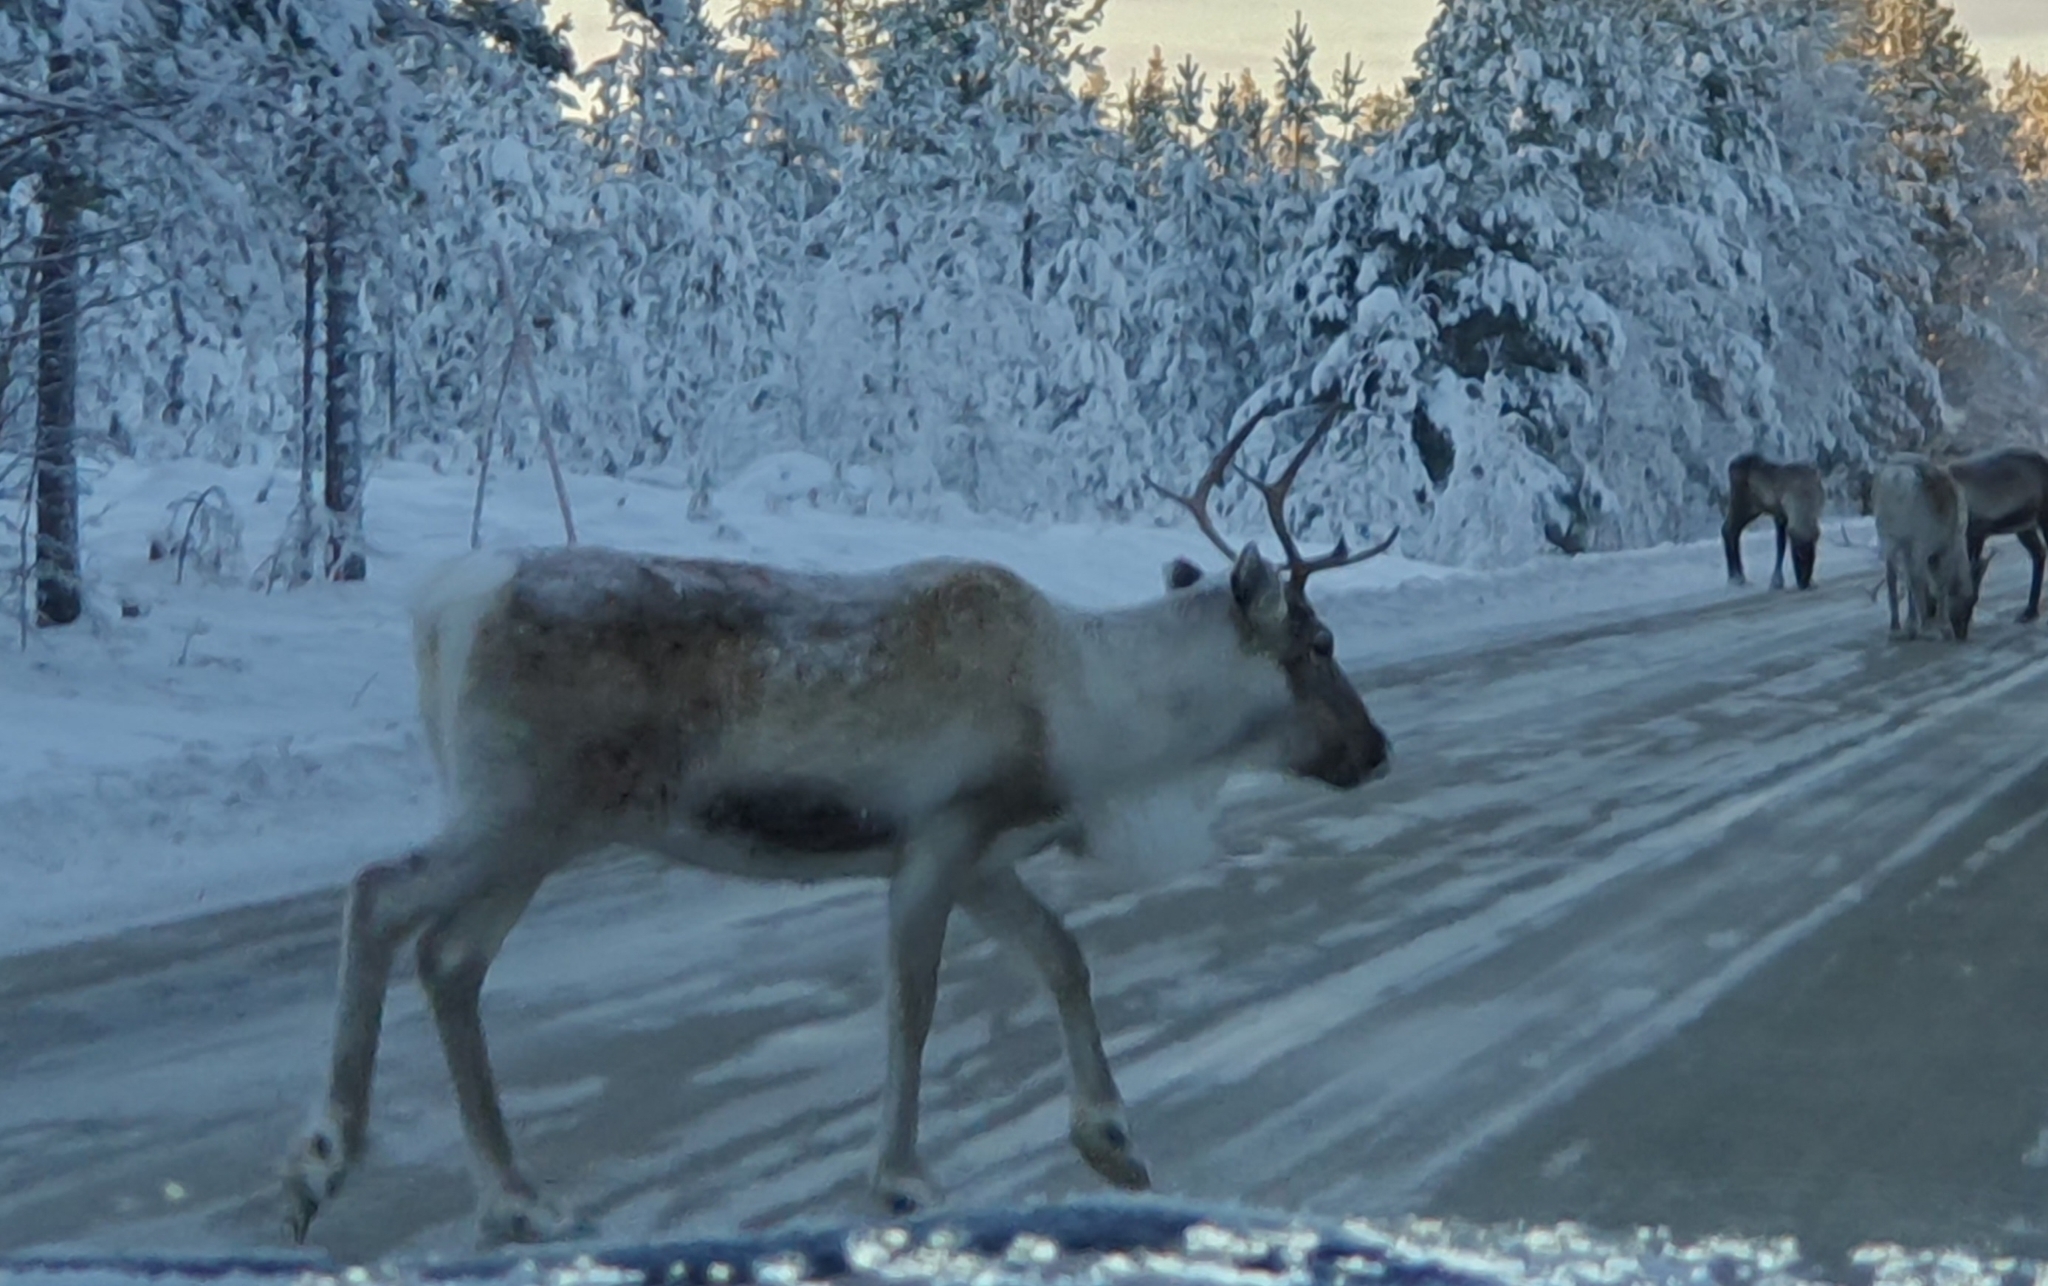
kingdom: Animalia
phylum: Chordata
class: Mammalia
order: Artiodactyla
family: Cervidae
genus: Rangifer
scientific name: Rangifer tarandus
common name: Reindeer
